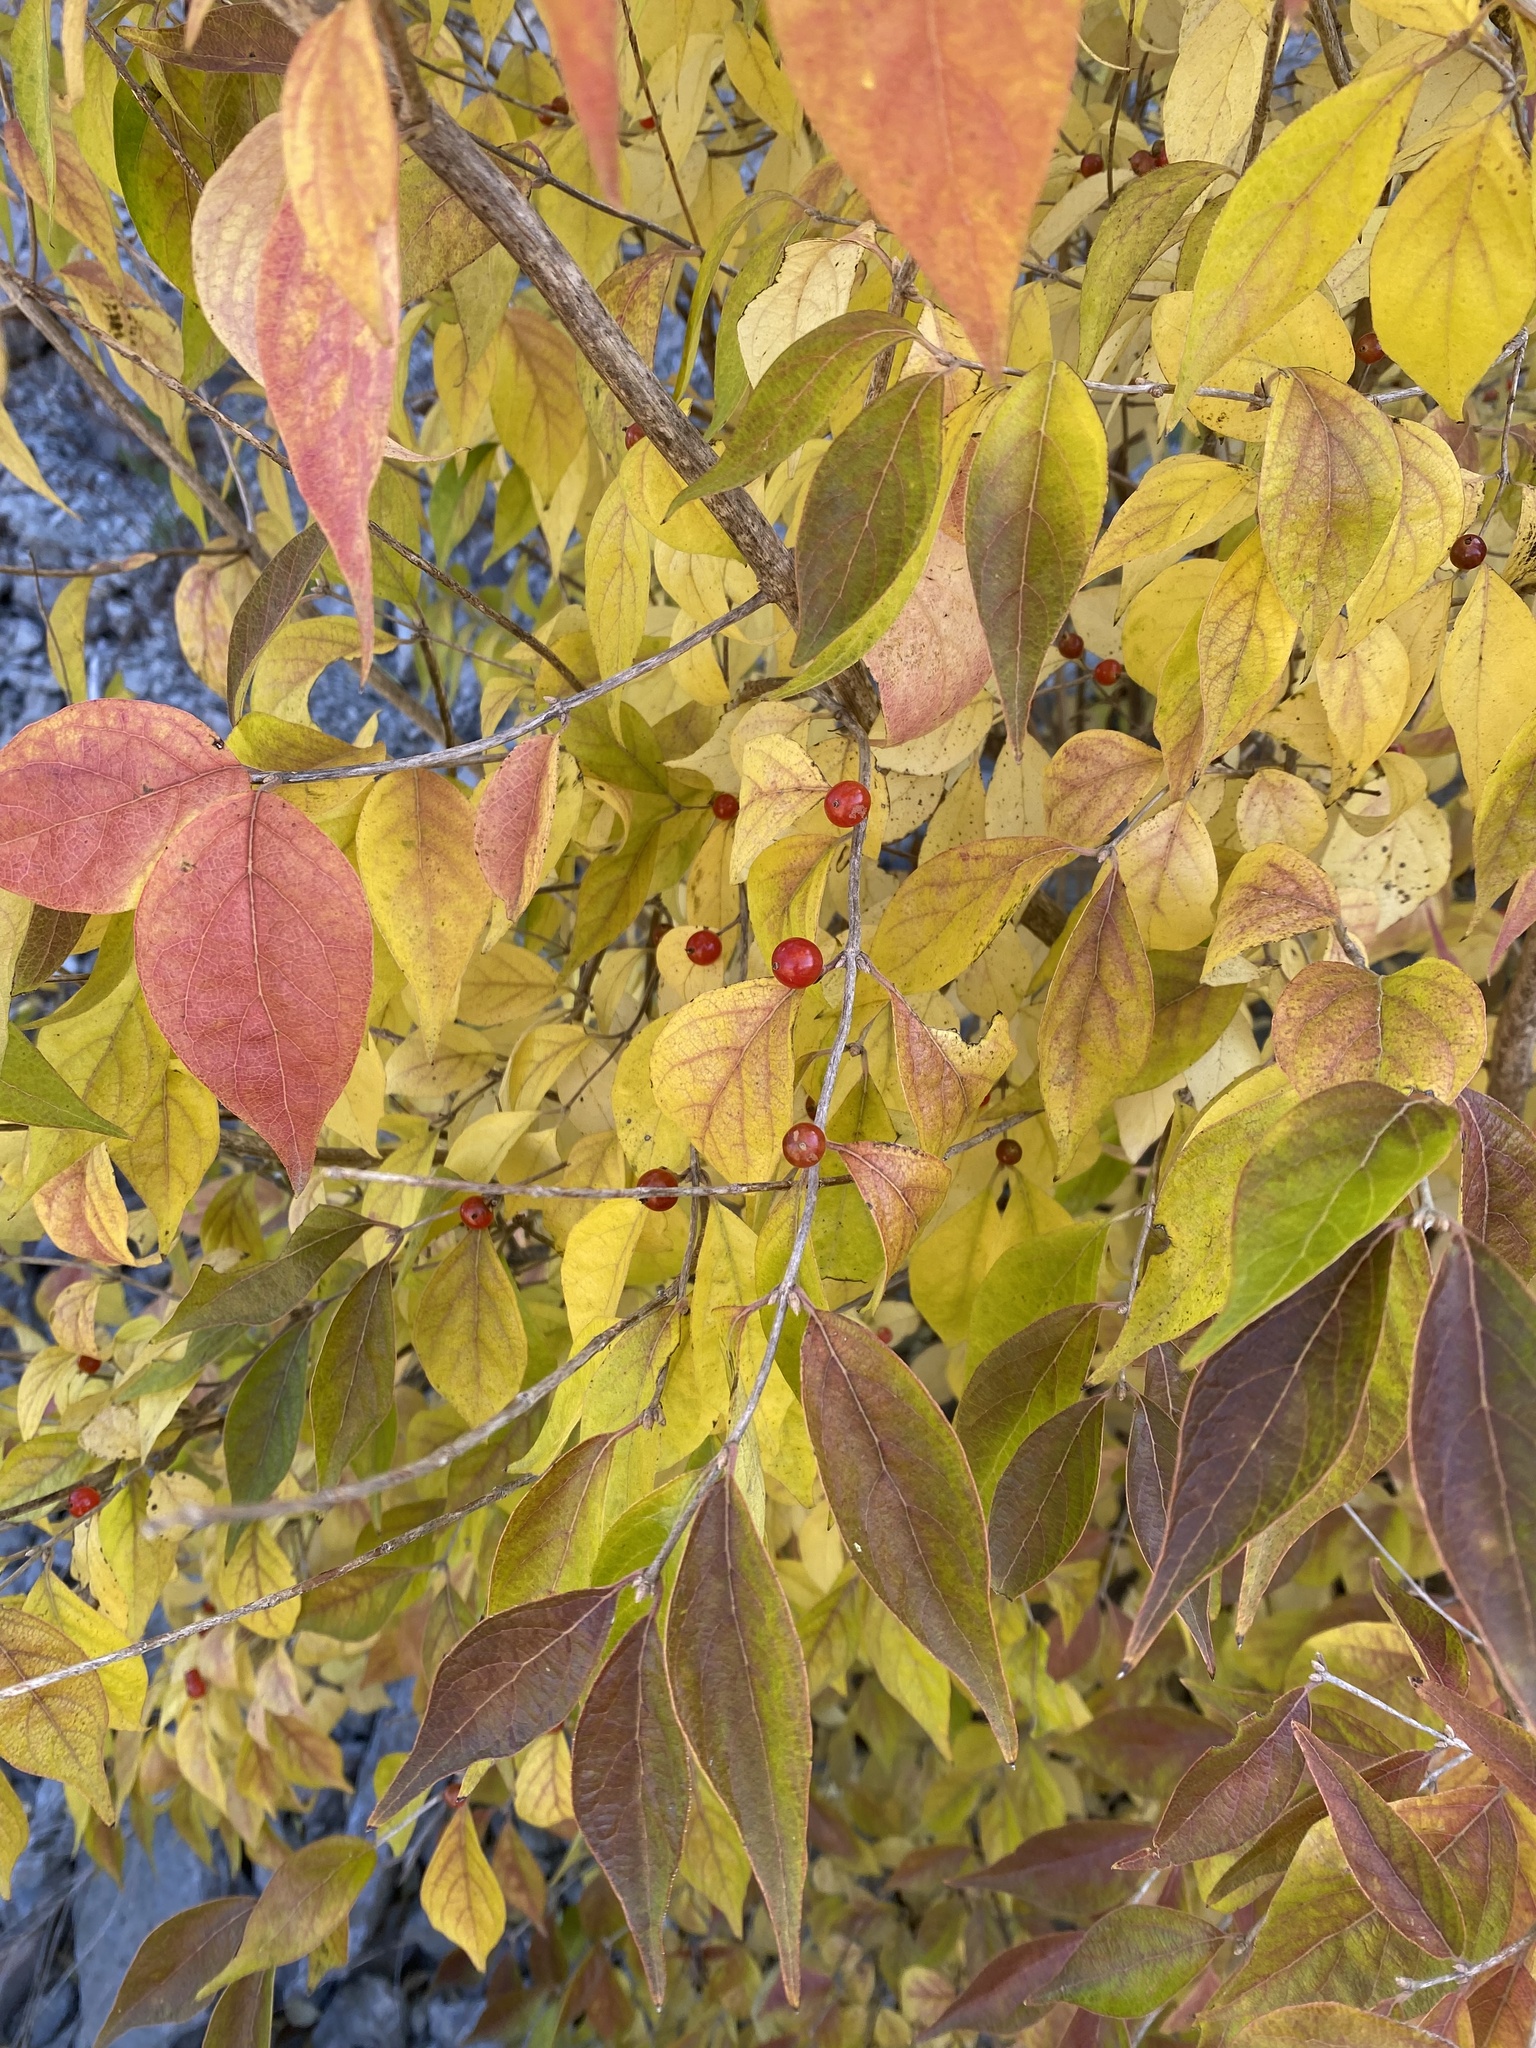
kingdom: Plantae
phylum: Tracheophyta
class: Magnoliopsida
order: Dipsacales
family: Caprifoliaceae
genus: Lonicera
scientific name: Lonicera maackii
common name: Amur honeysuckle
